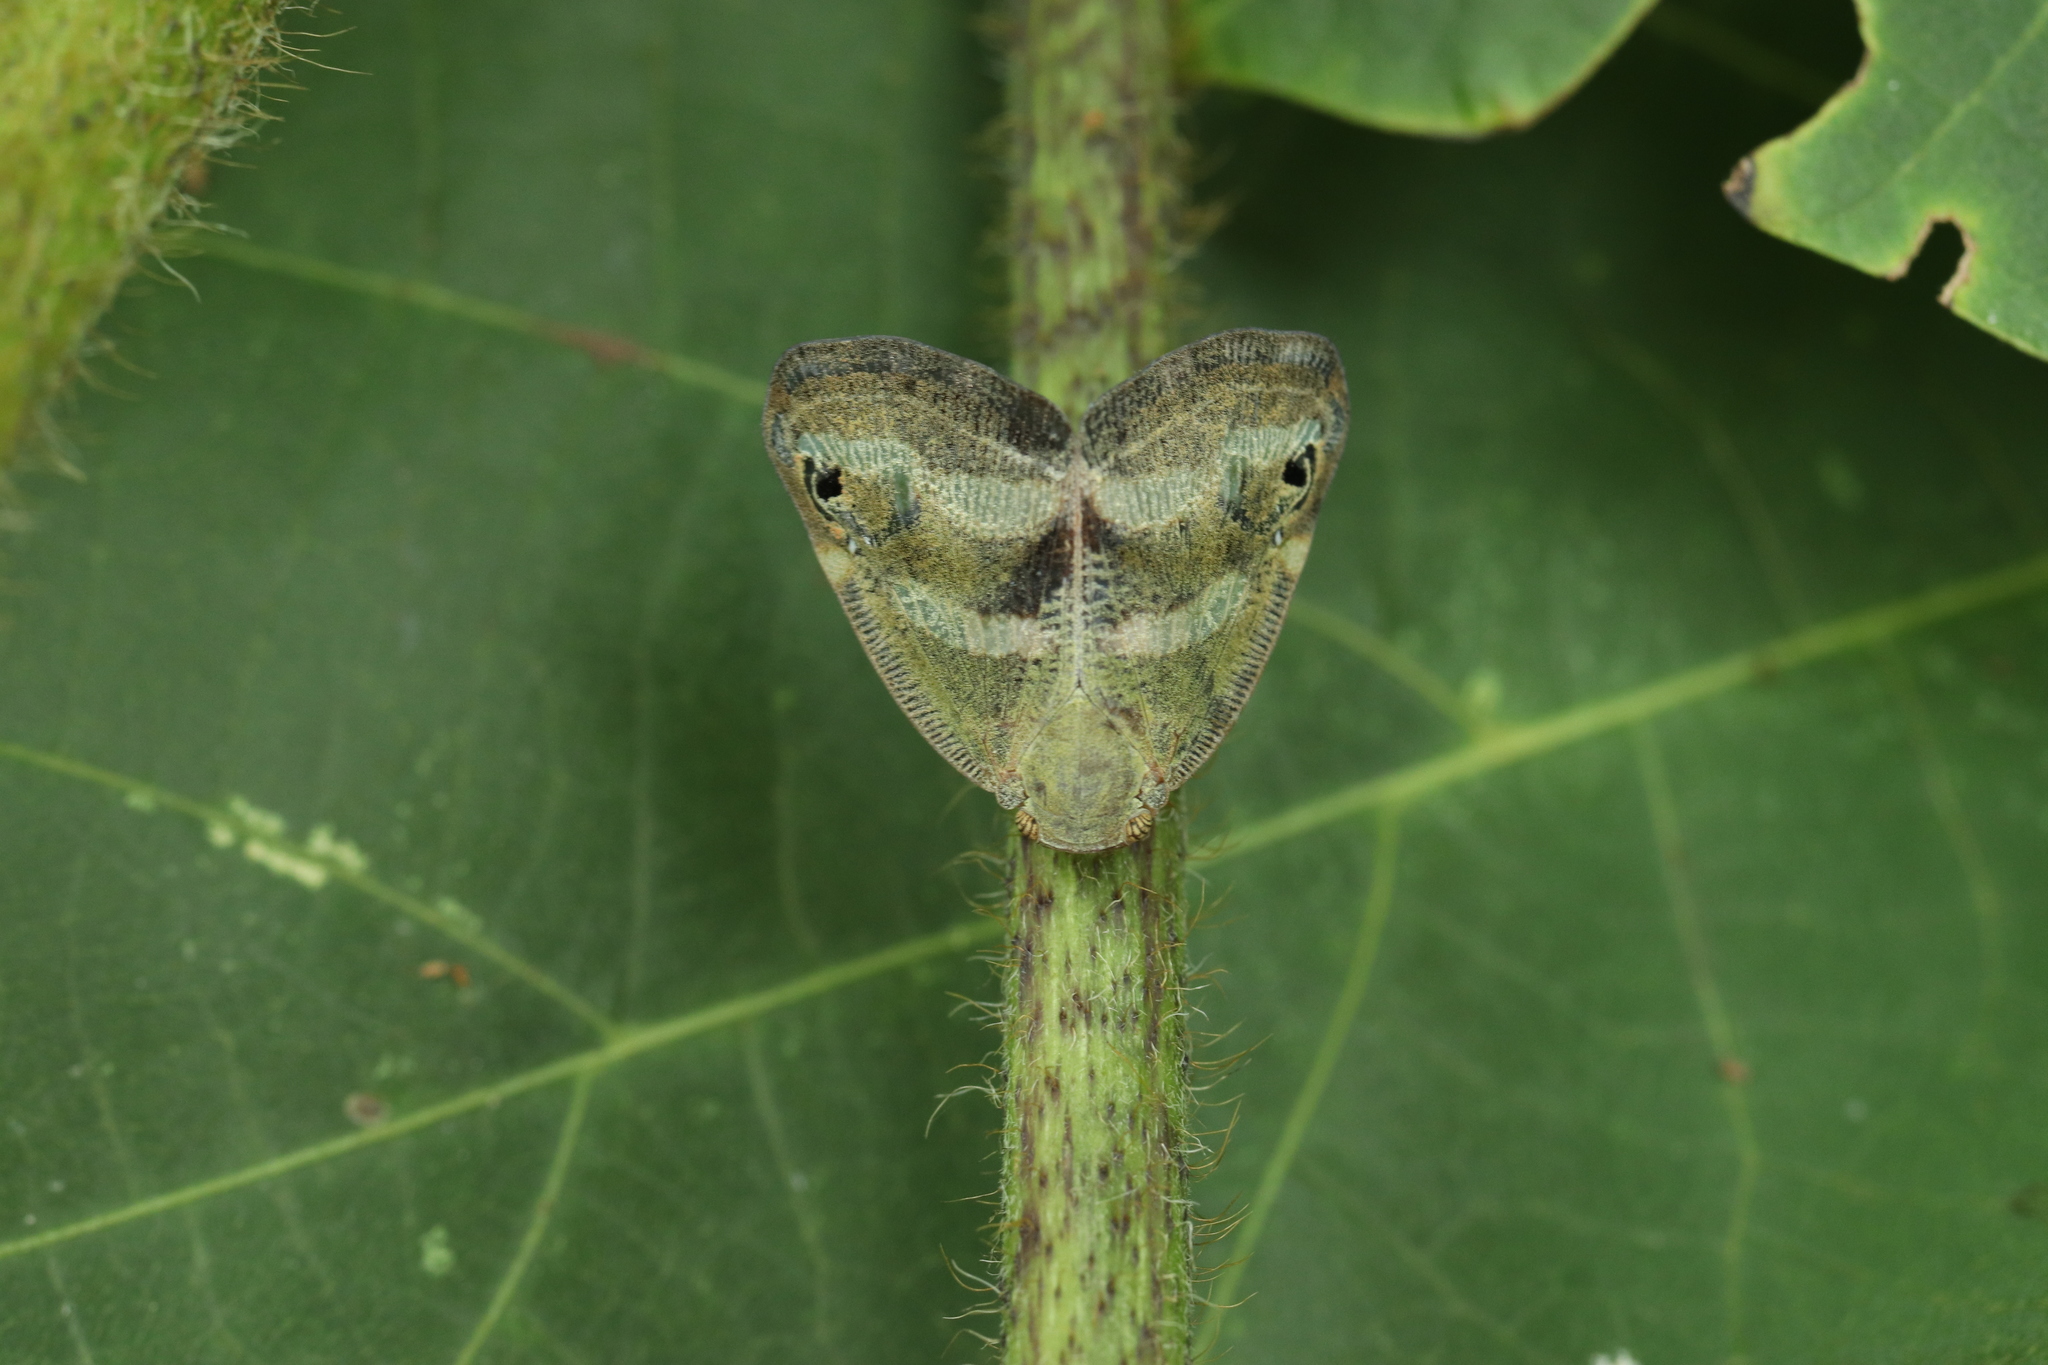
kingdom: Animalia
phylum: Arthropoda
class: Insecta
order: Hemiptera
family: Ricaniidae
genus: Orosanga
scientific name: Orosanga japonica
